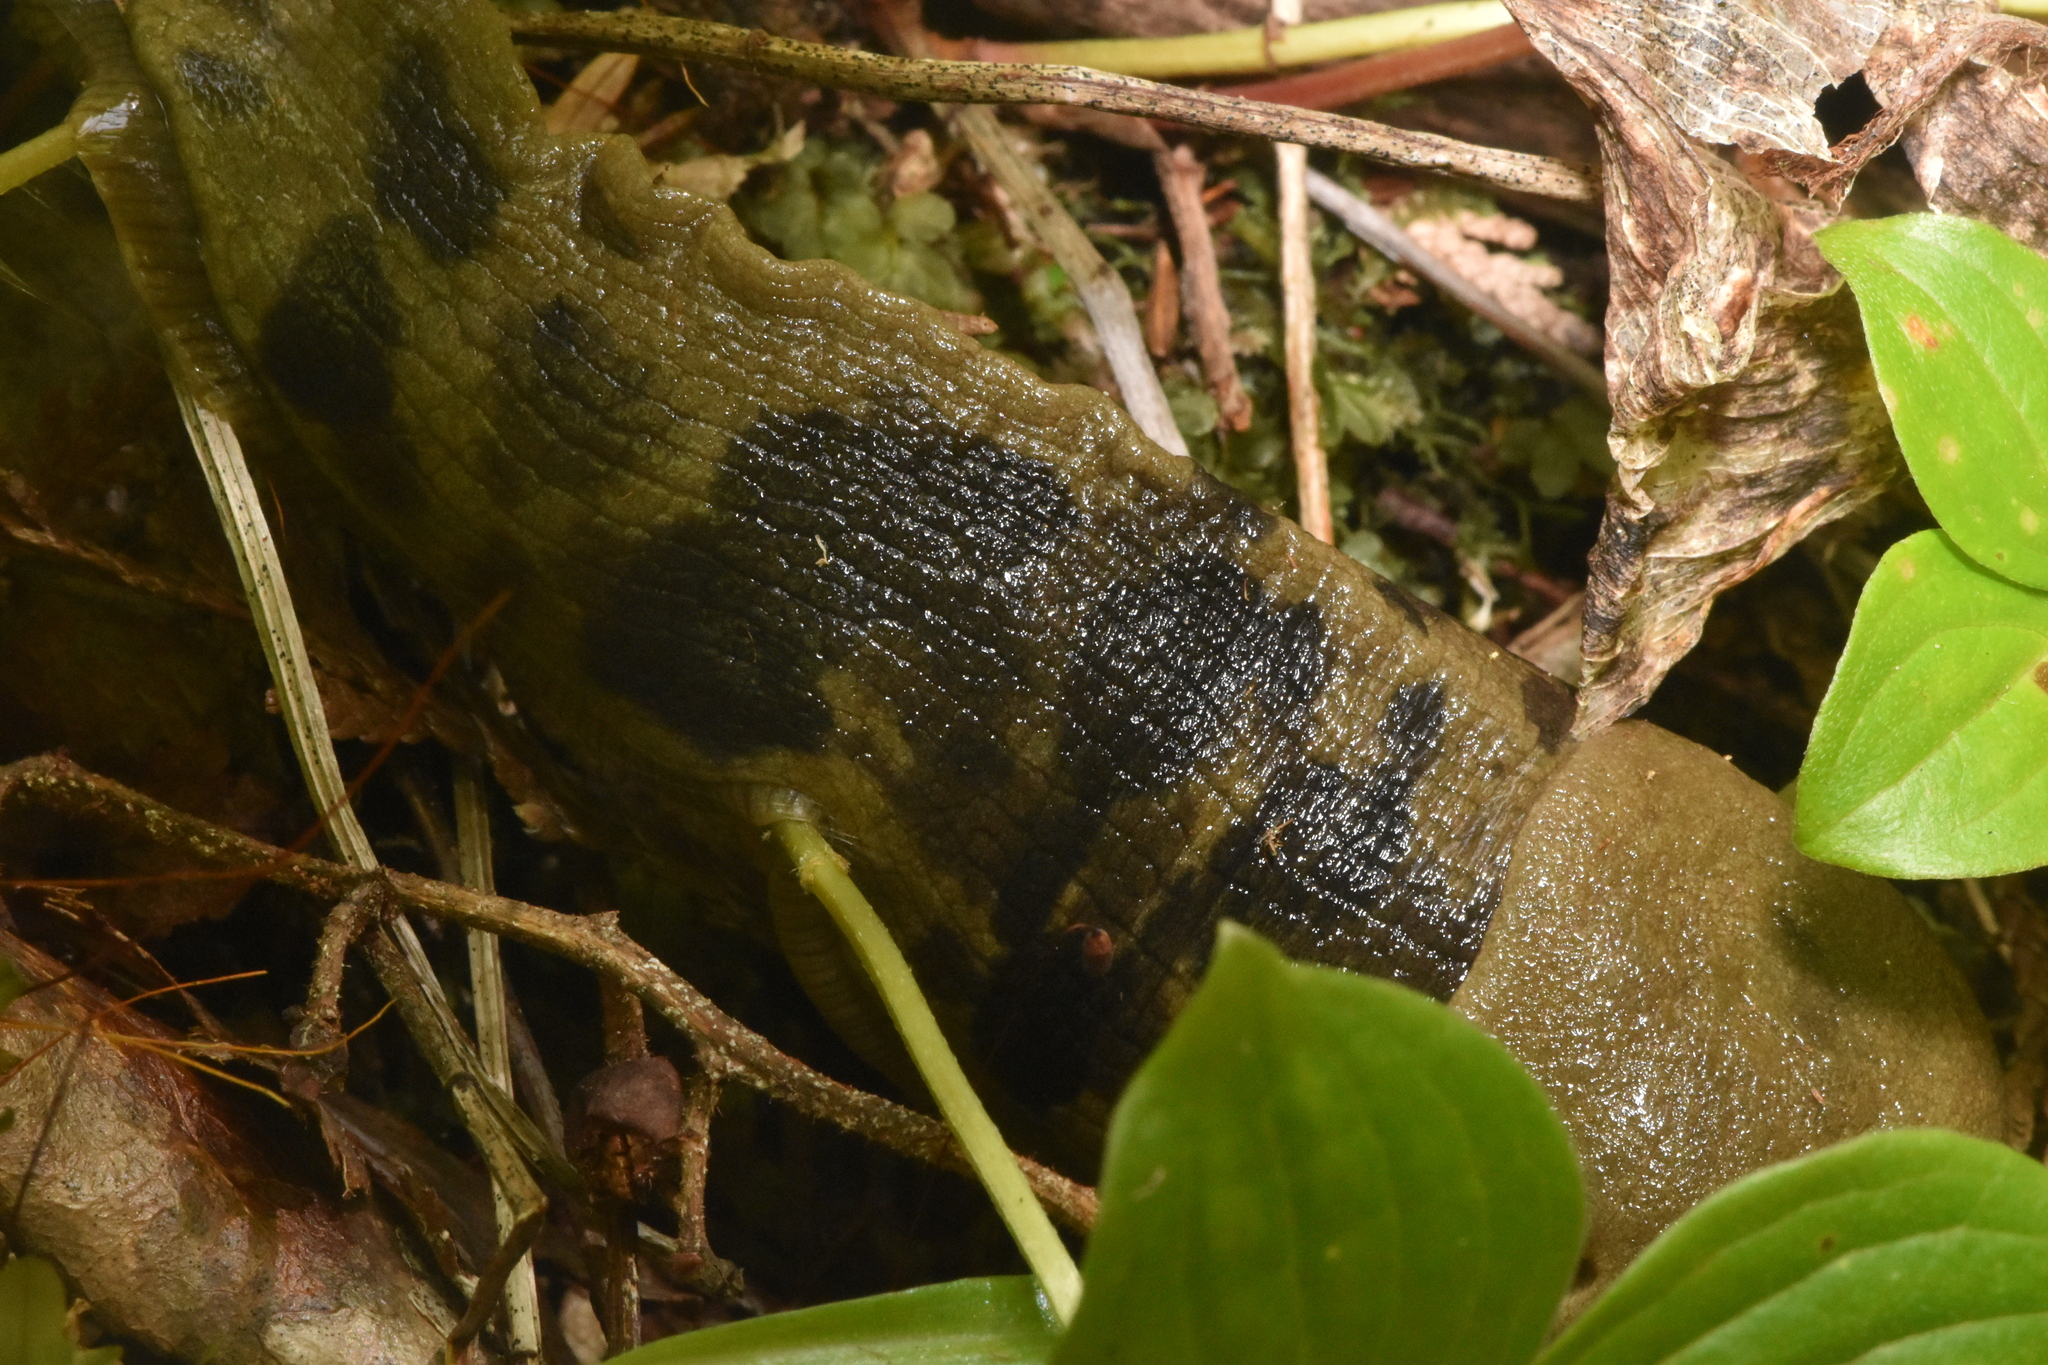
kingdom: Animalia
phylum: Mollusca
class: Gastropoda
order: Stylommatophora
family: Ariolimacidae
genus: Ariolimax
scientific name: Ariolimax columbianus
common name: Pacific banana slug
